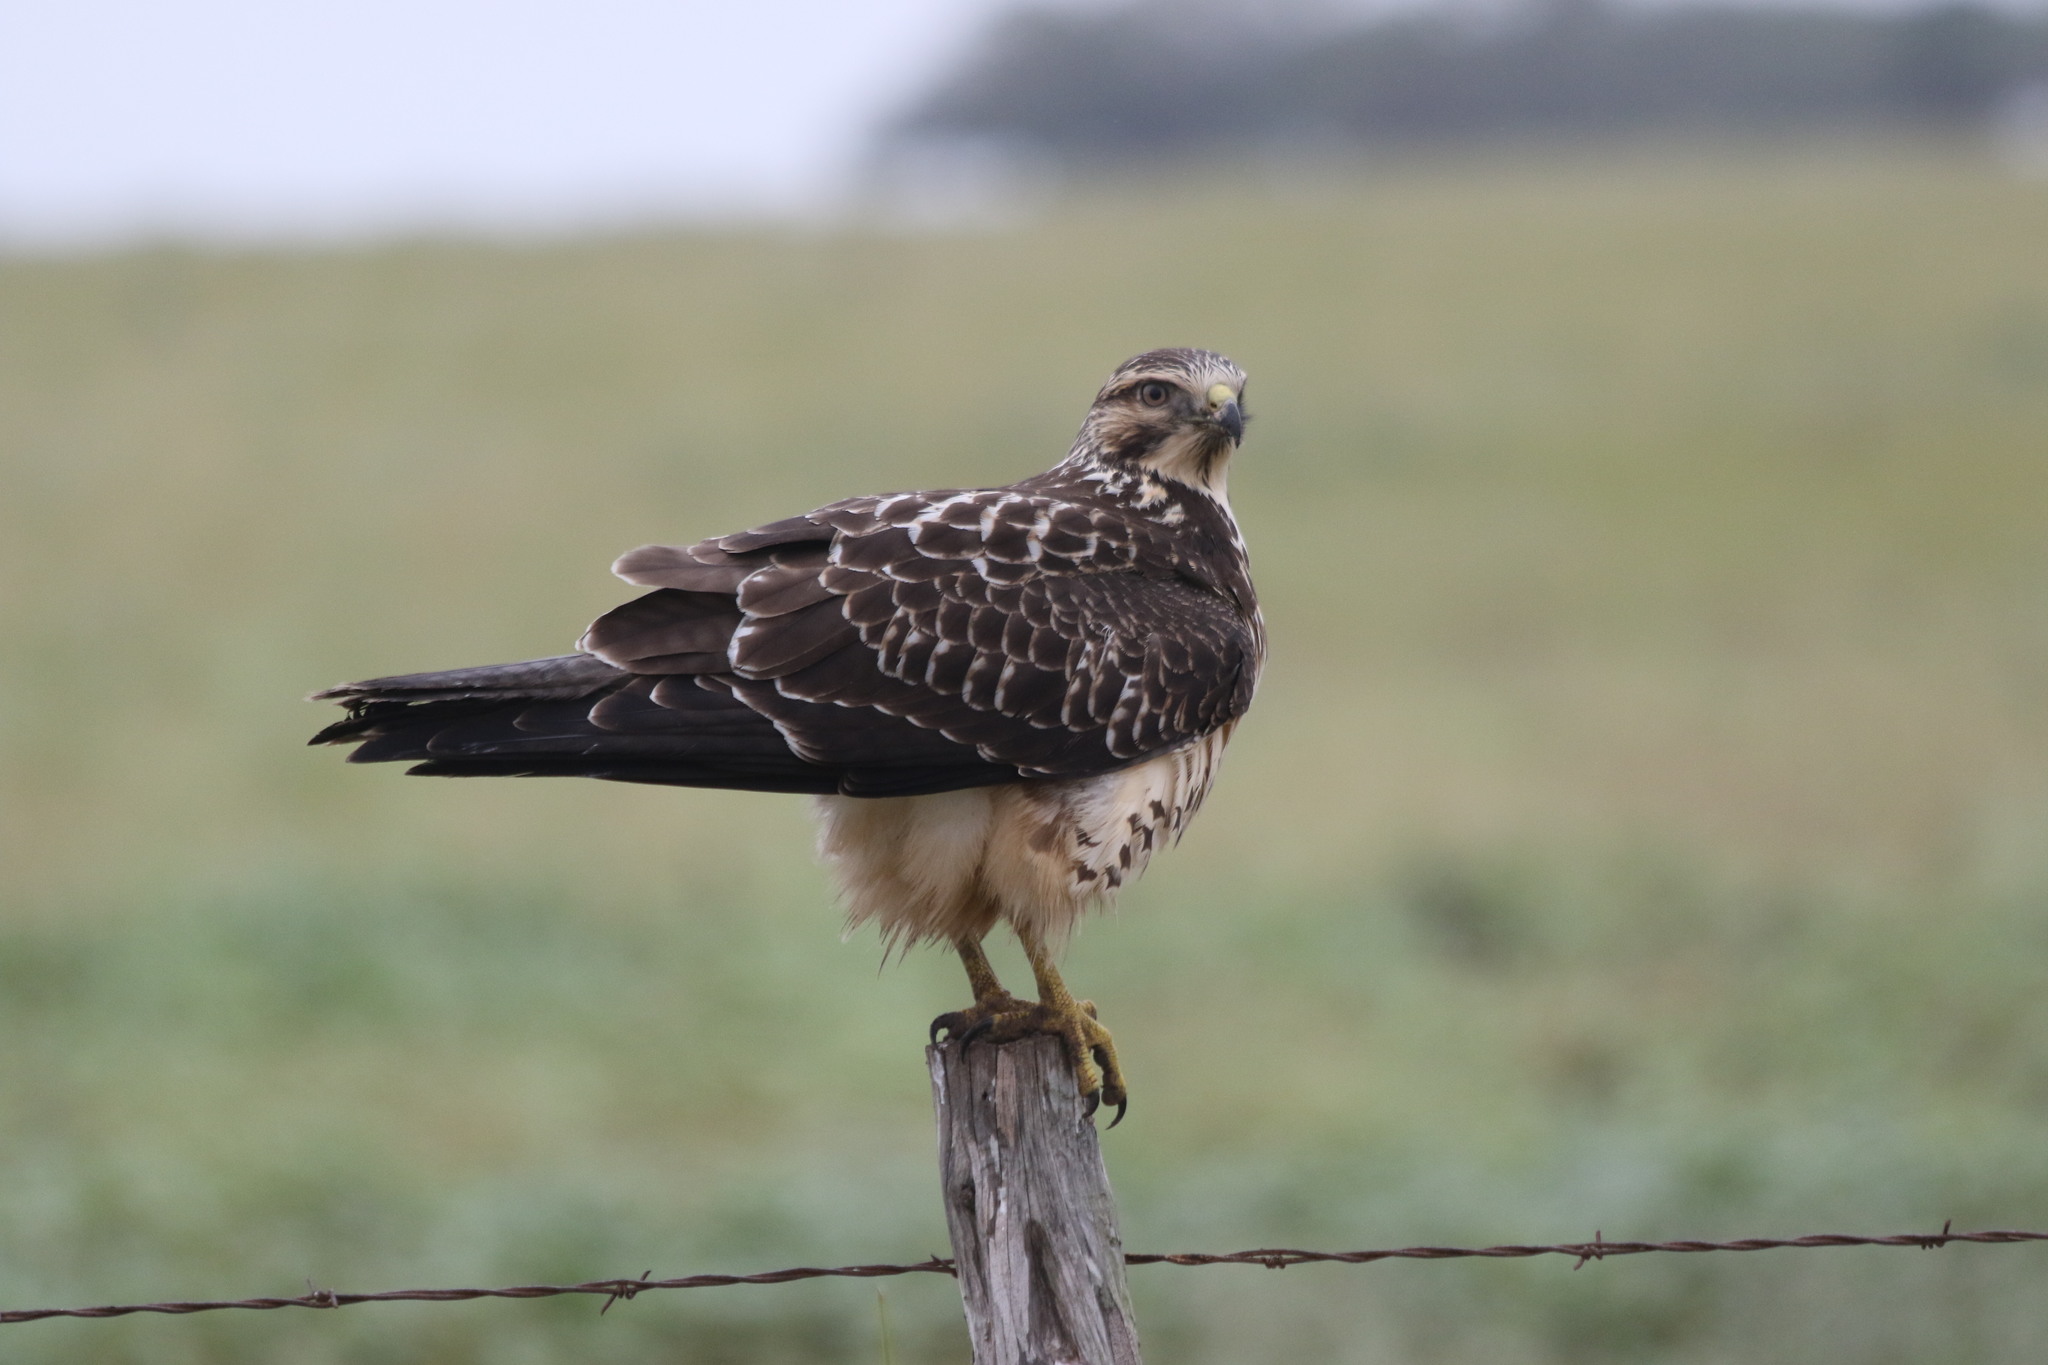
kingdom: Animalia
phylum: Chordata
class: Aves
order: Accipitriformes
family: Accipitridae
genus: Buteo
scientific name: Buteo swainsoni
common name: Swainson's hawk
